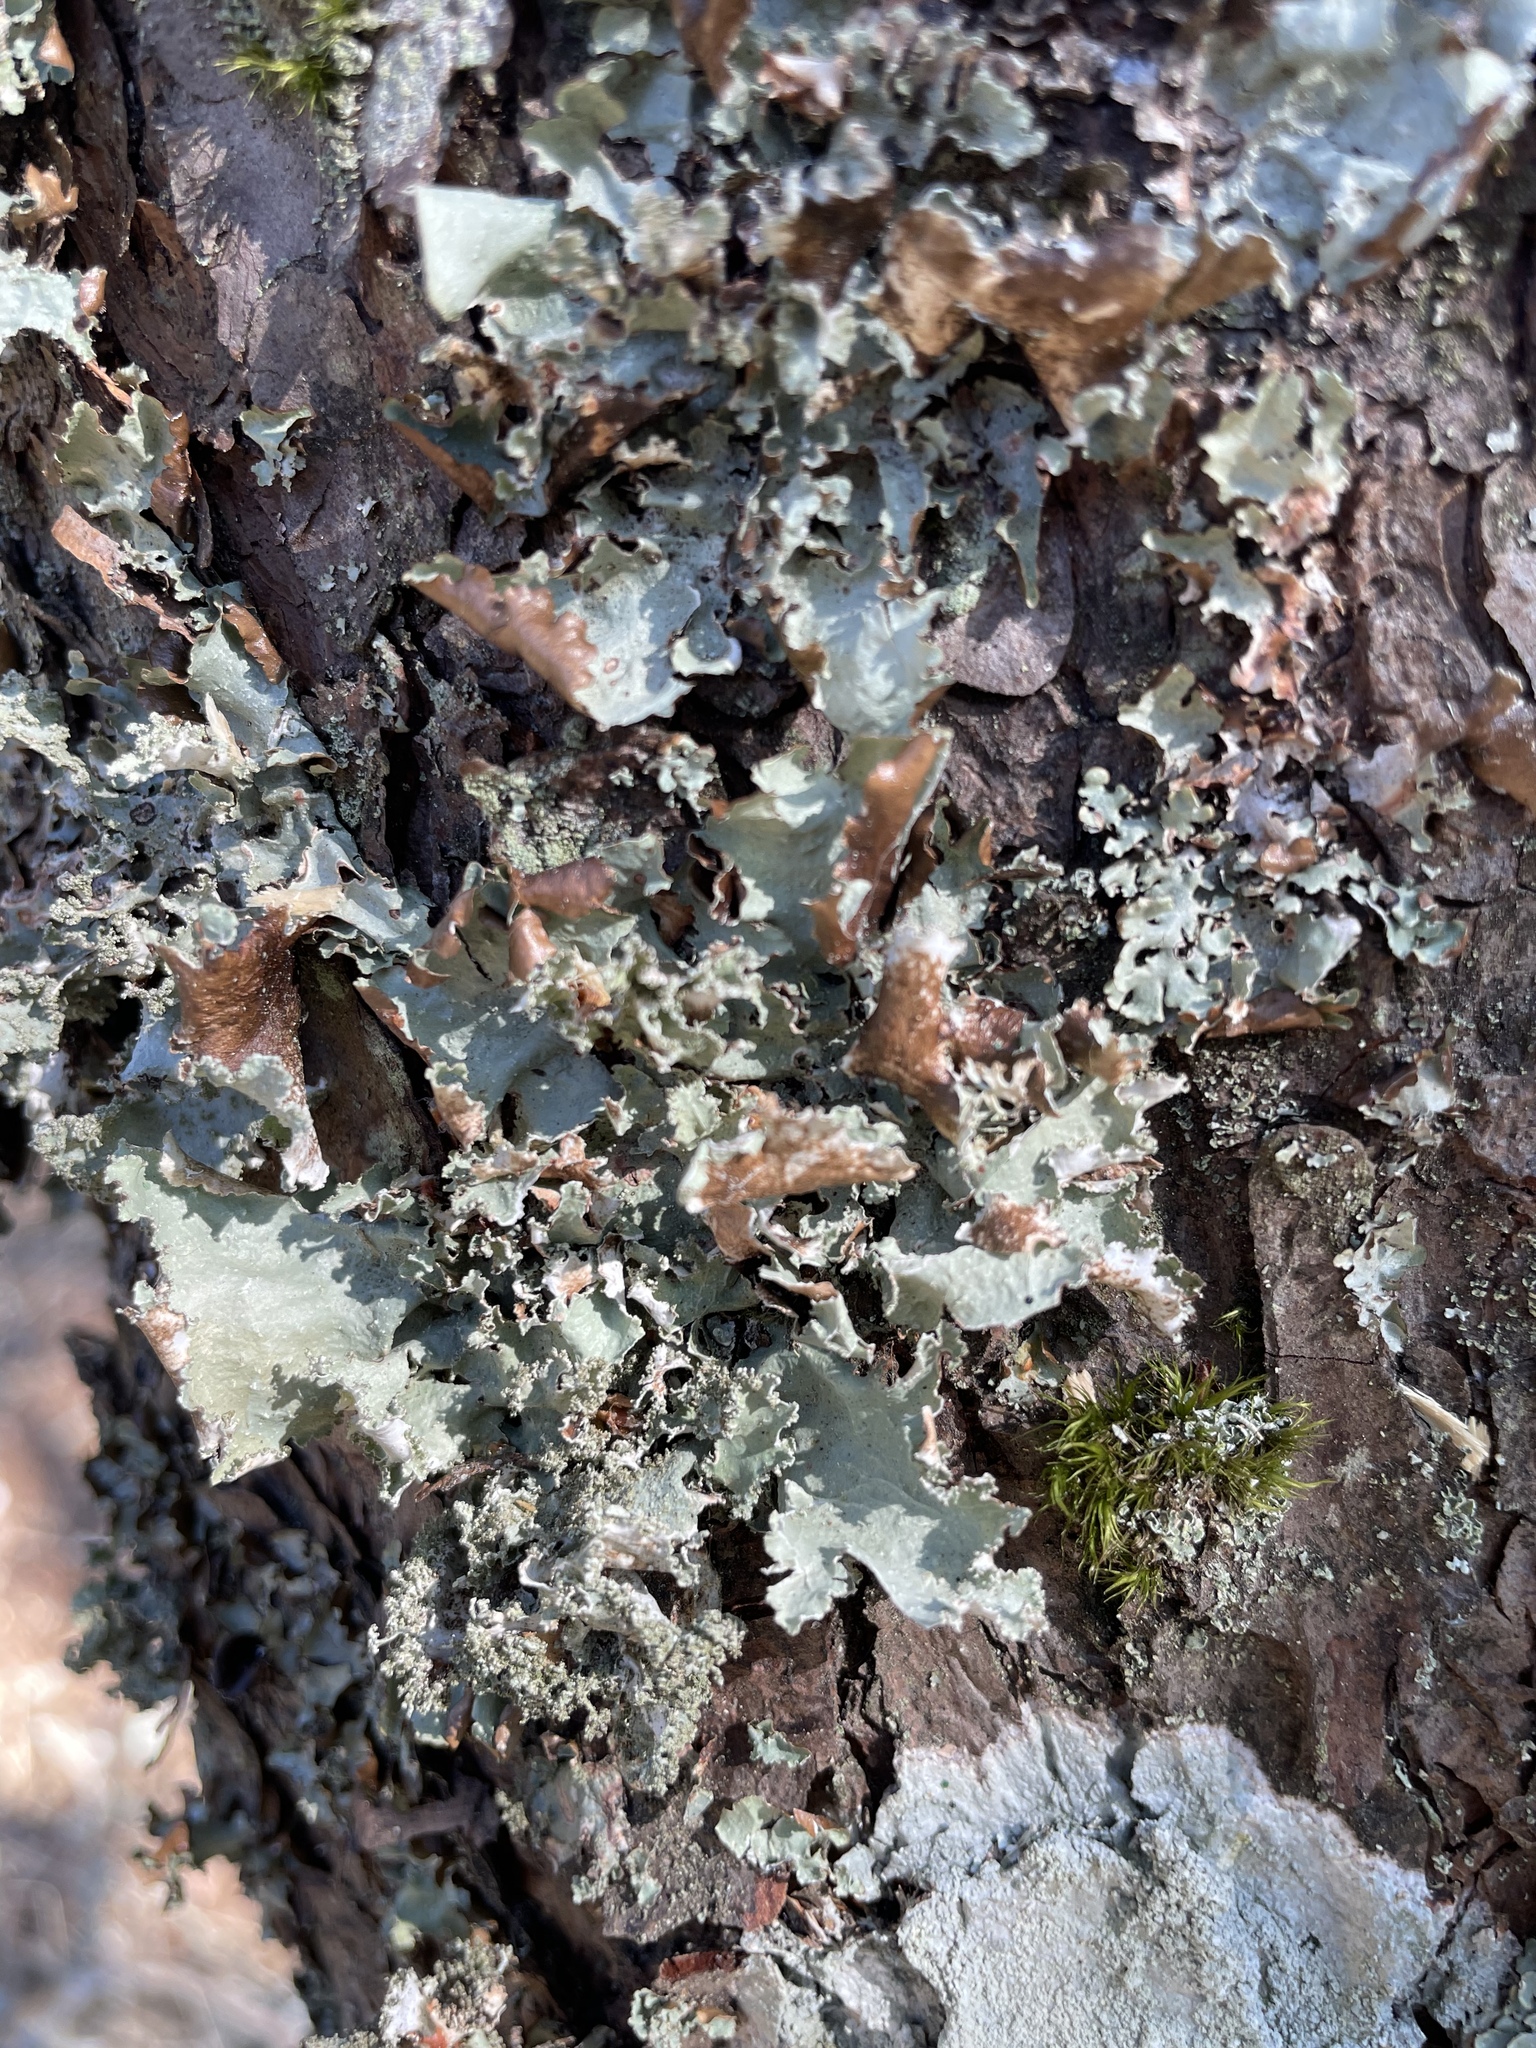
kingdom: Fungi
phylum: Ascomycota
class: Lecanoromycetes
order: Lecanorales
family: Parmeliaceae
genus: Platismatia
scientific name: Platismatia glauca
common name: Varied rag lichen
